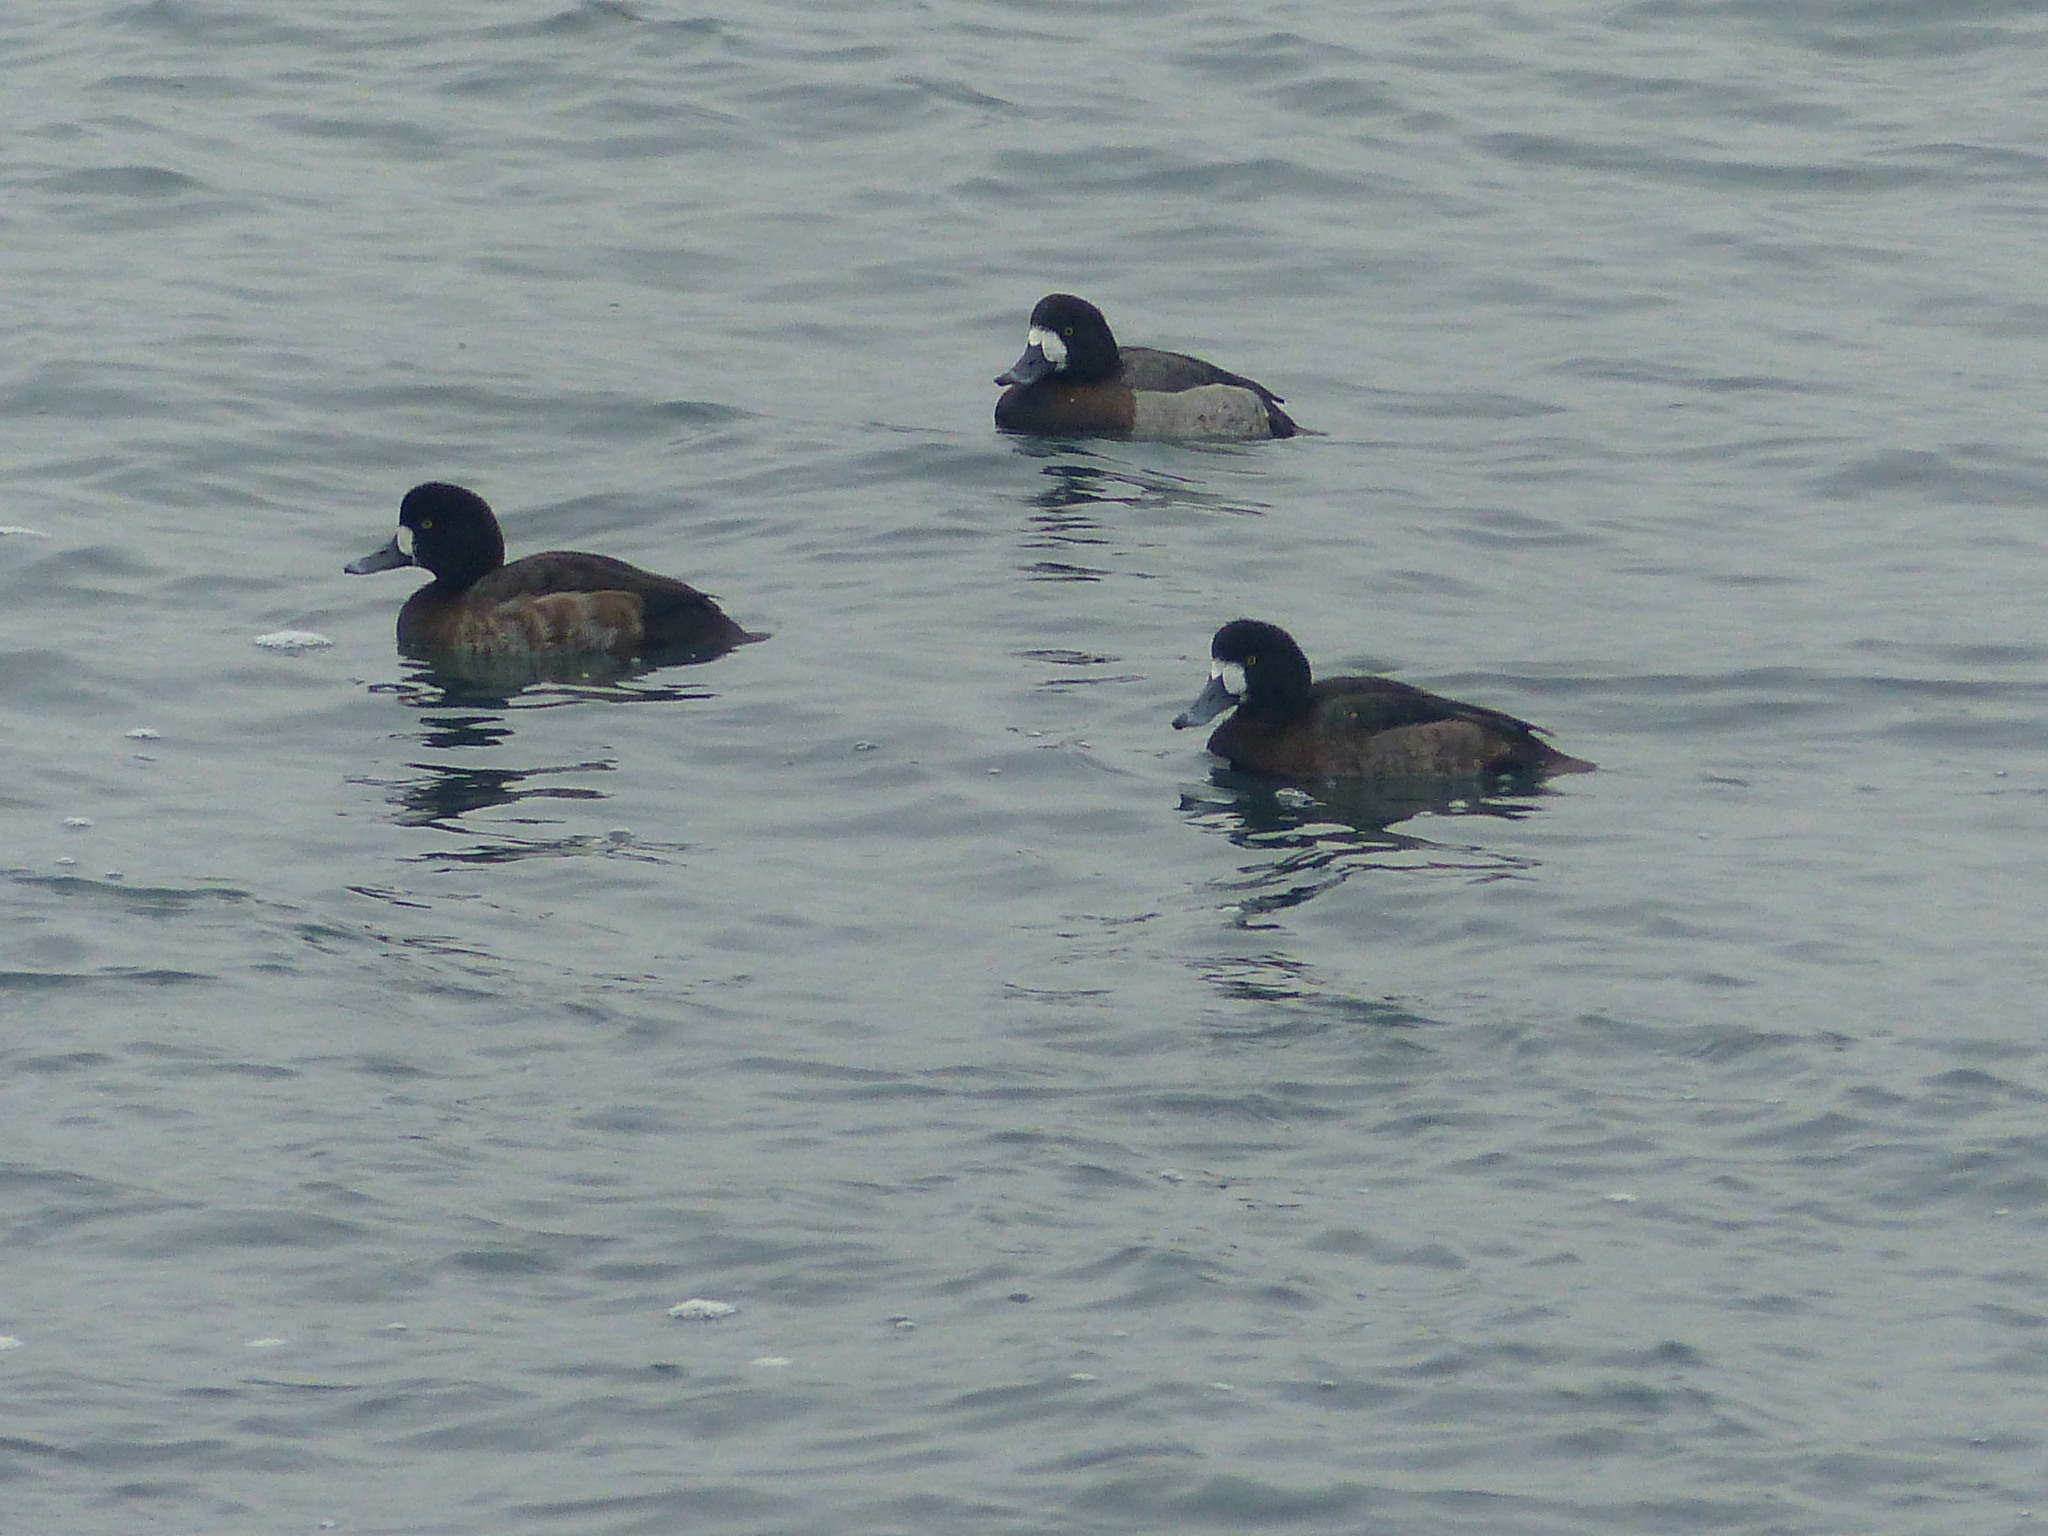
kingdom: Animalia
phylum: Chordata
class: Aves
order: Anseriformes
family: Anatidae
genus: Aythya
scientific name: Aythya marila
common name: Greater scaup
